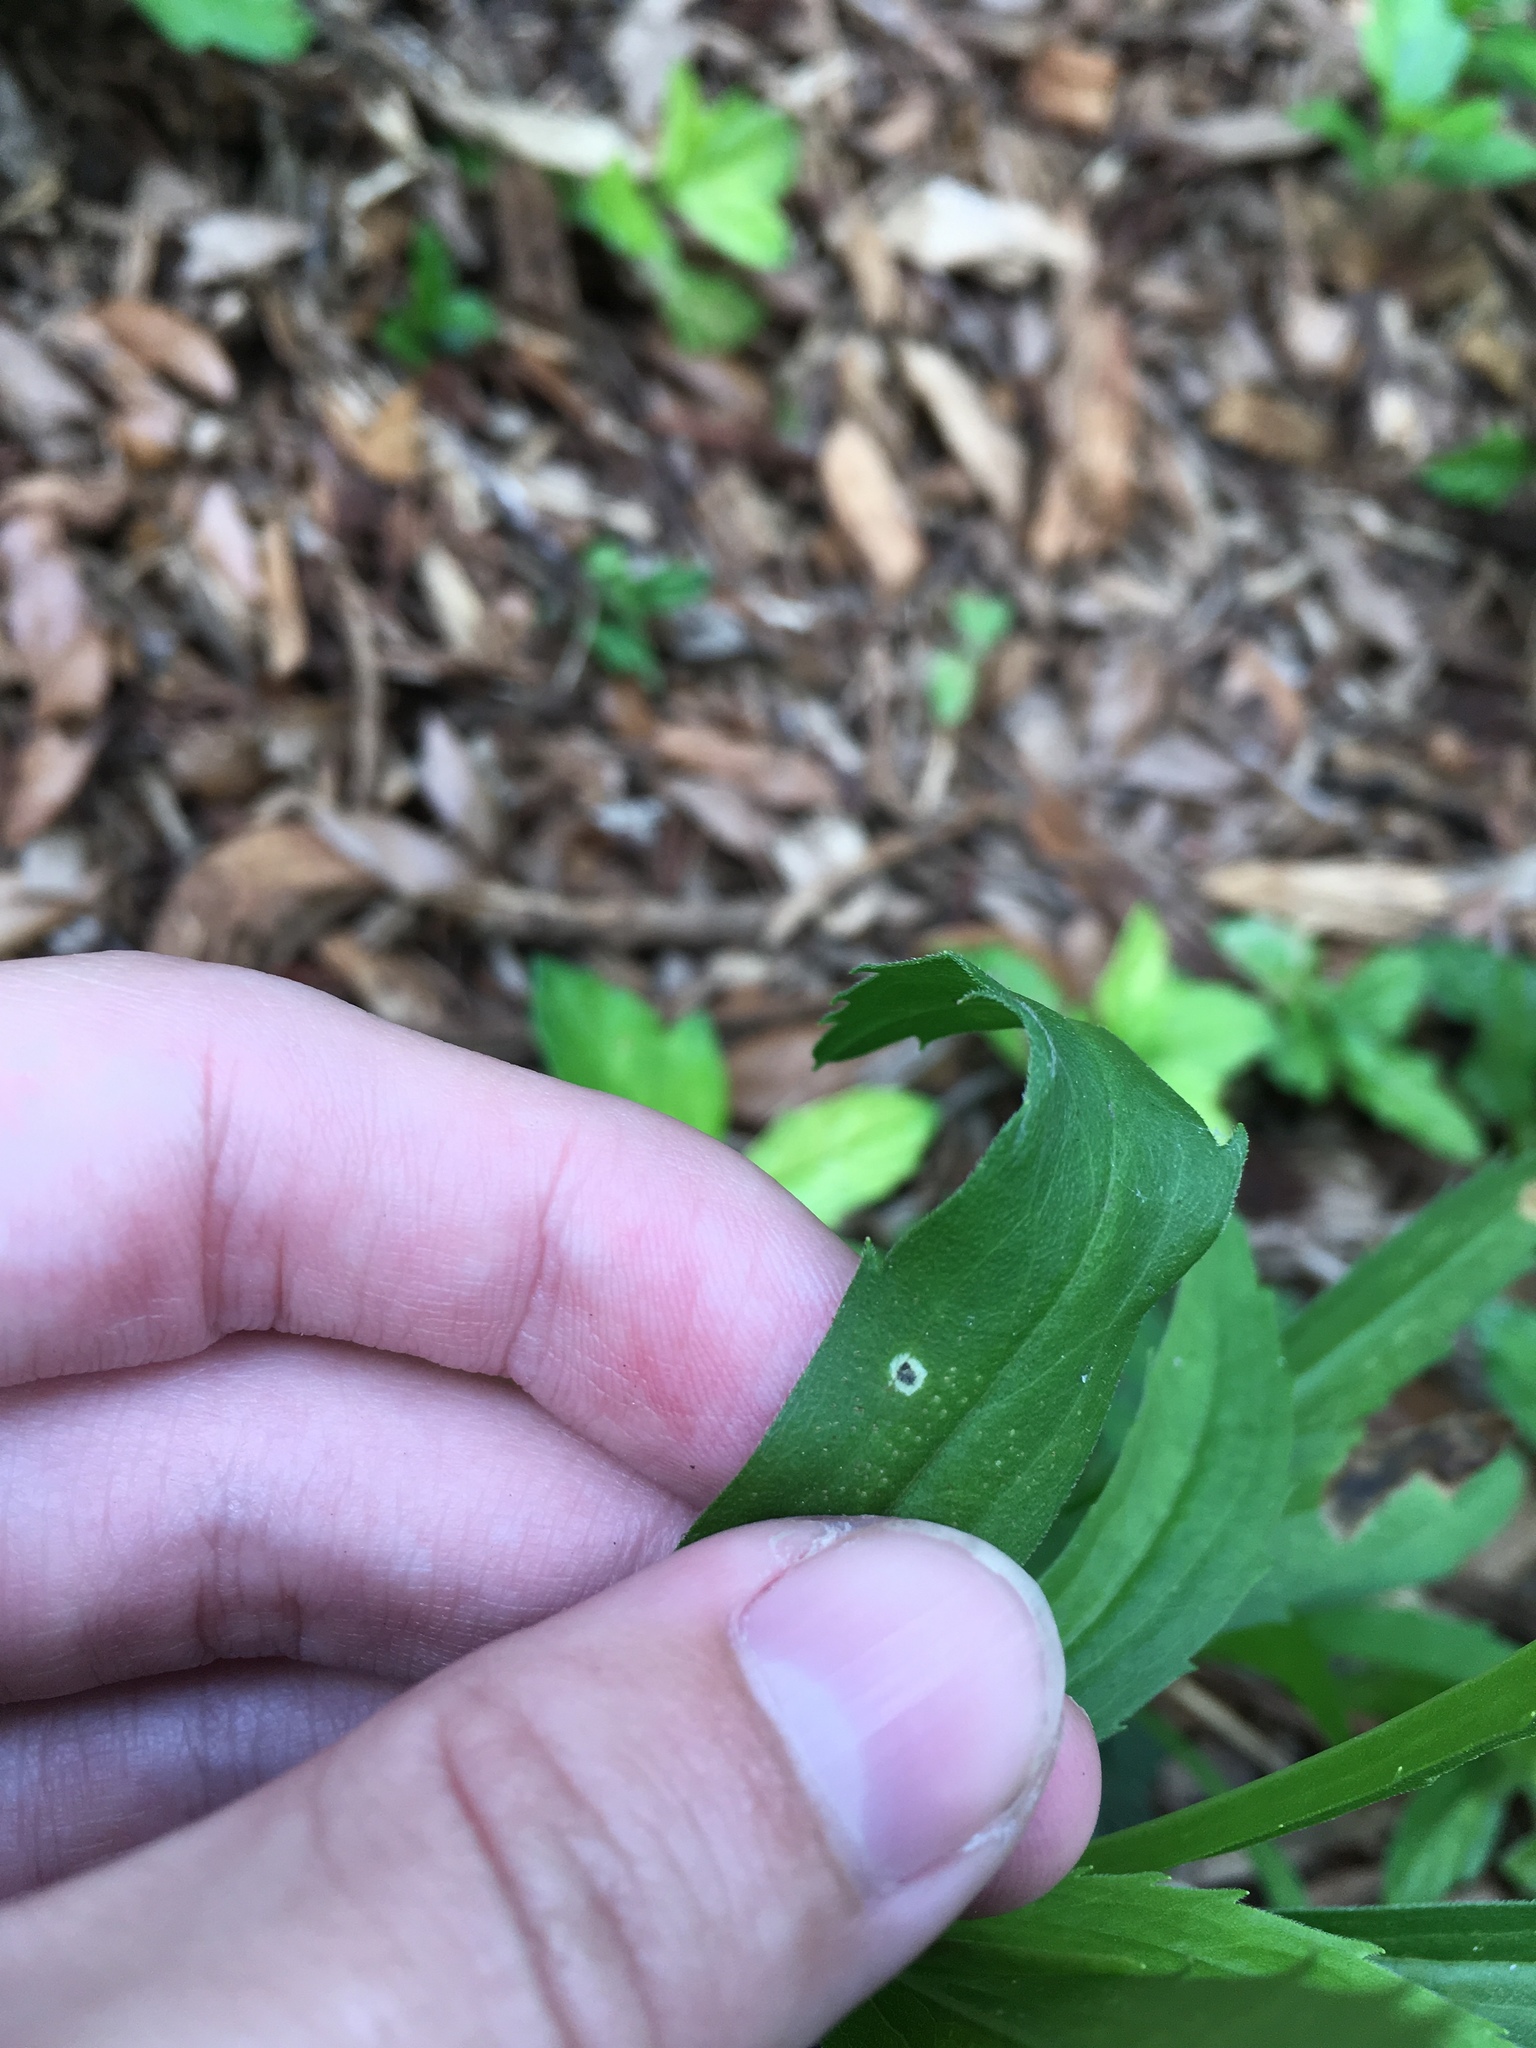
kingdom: Fungi
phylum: Ascomycota
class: Dothideomycetes
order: Botryosphaeriales
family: Botryosphaeriaceae
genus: Botryosphaeria
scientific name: Botryosphaeria dothidea
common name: Asteromyia gall midge fungus
